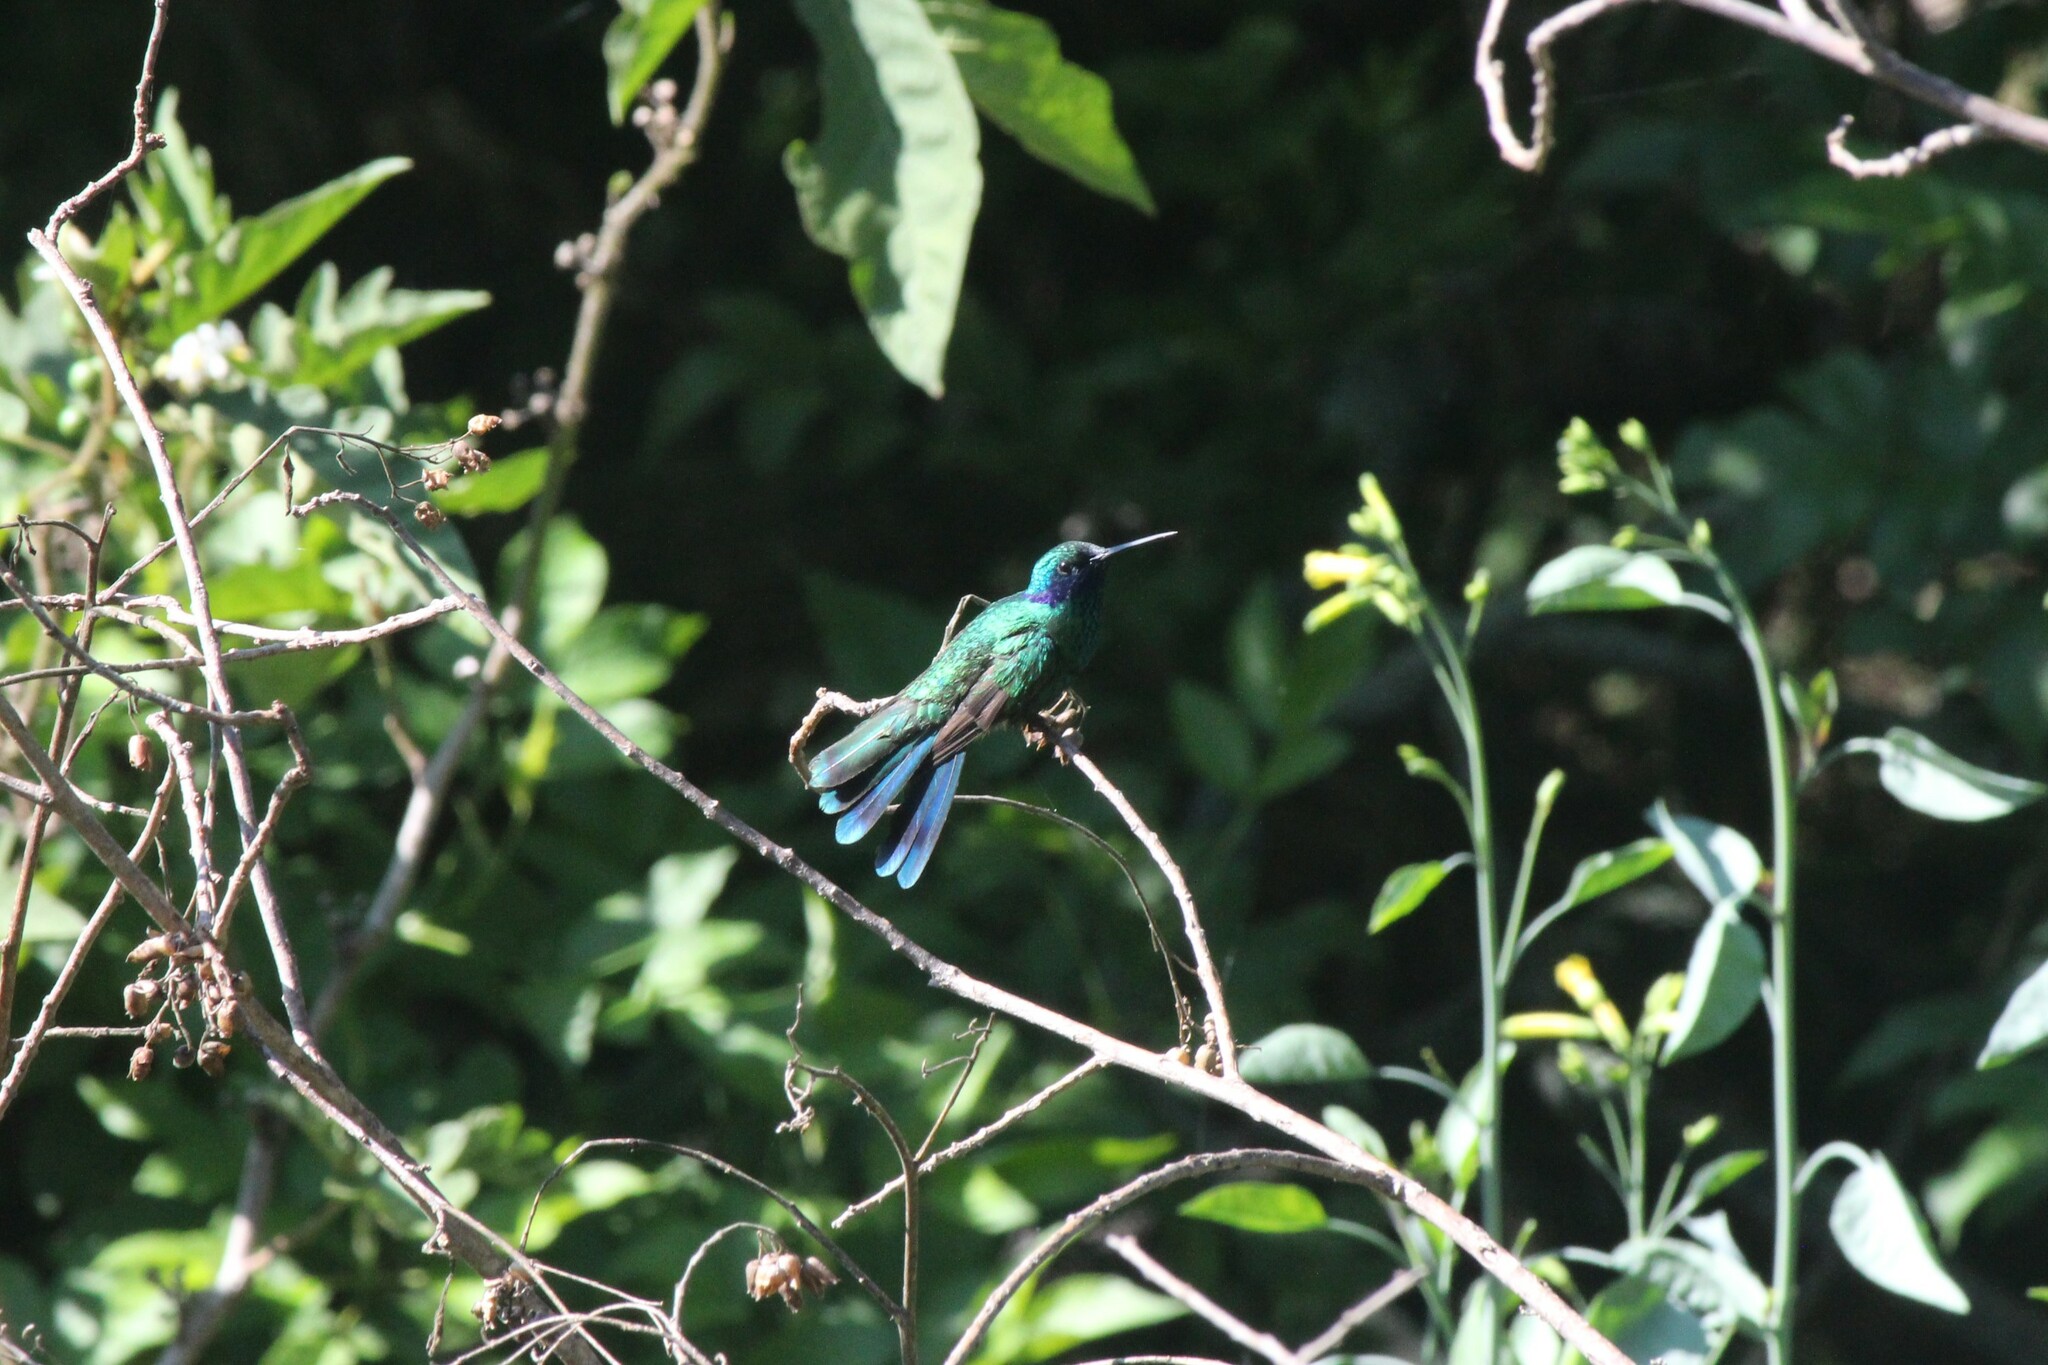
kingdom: Animalia
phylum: Chordata
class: Aves
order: Apodiformes
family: Trochilidae
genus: Colibri
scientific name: Colibri coruscans
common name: Sparkling violetear
